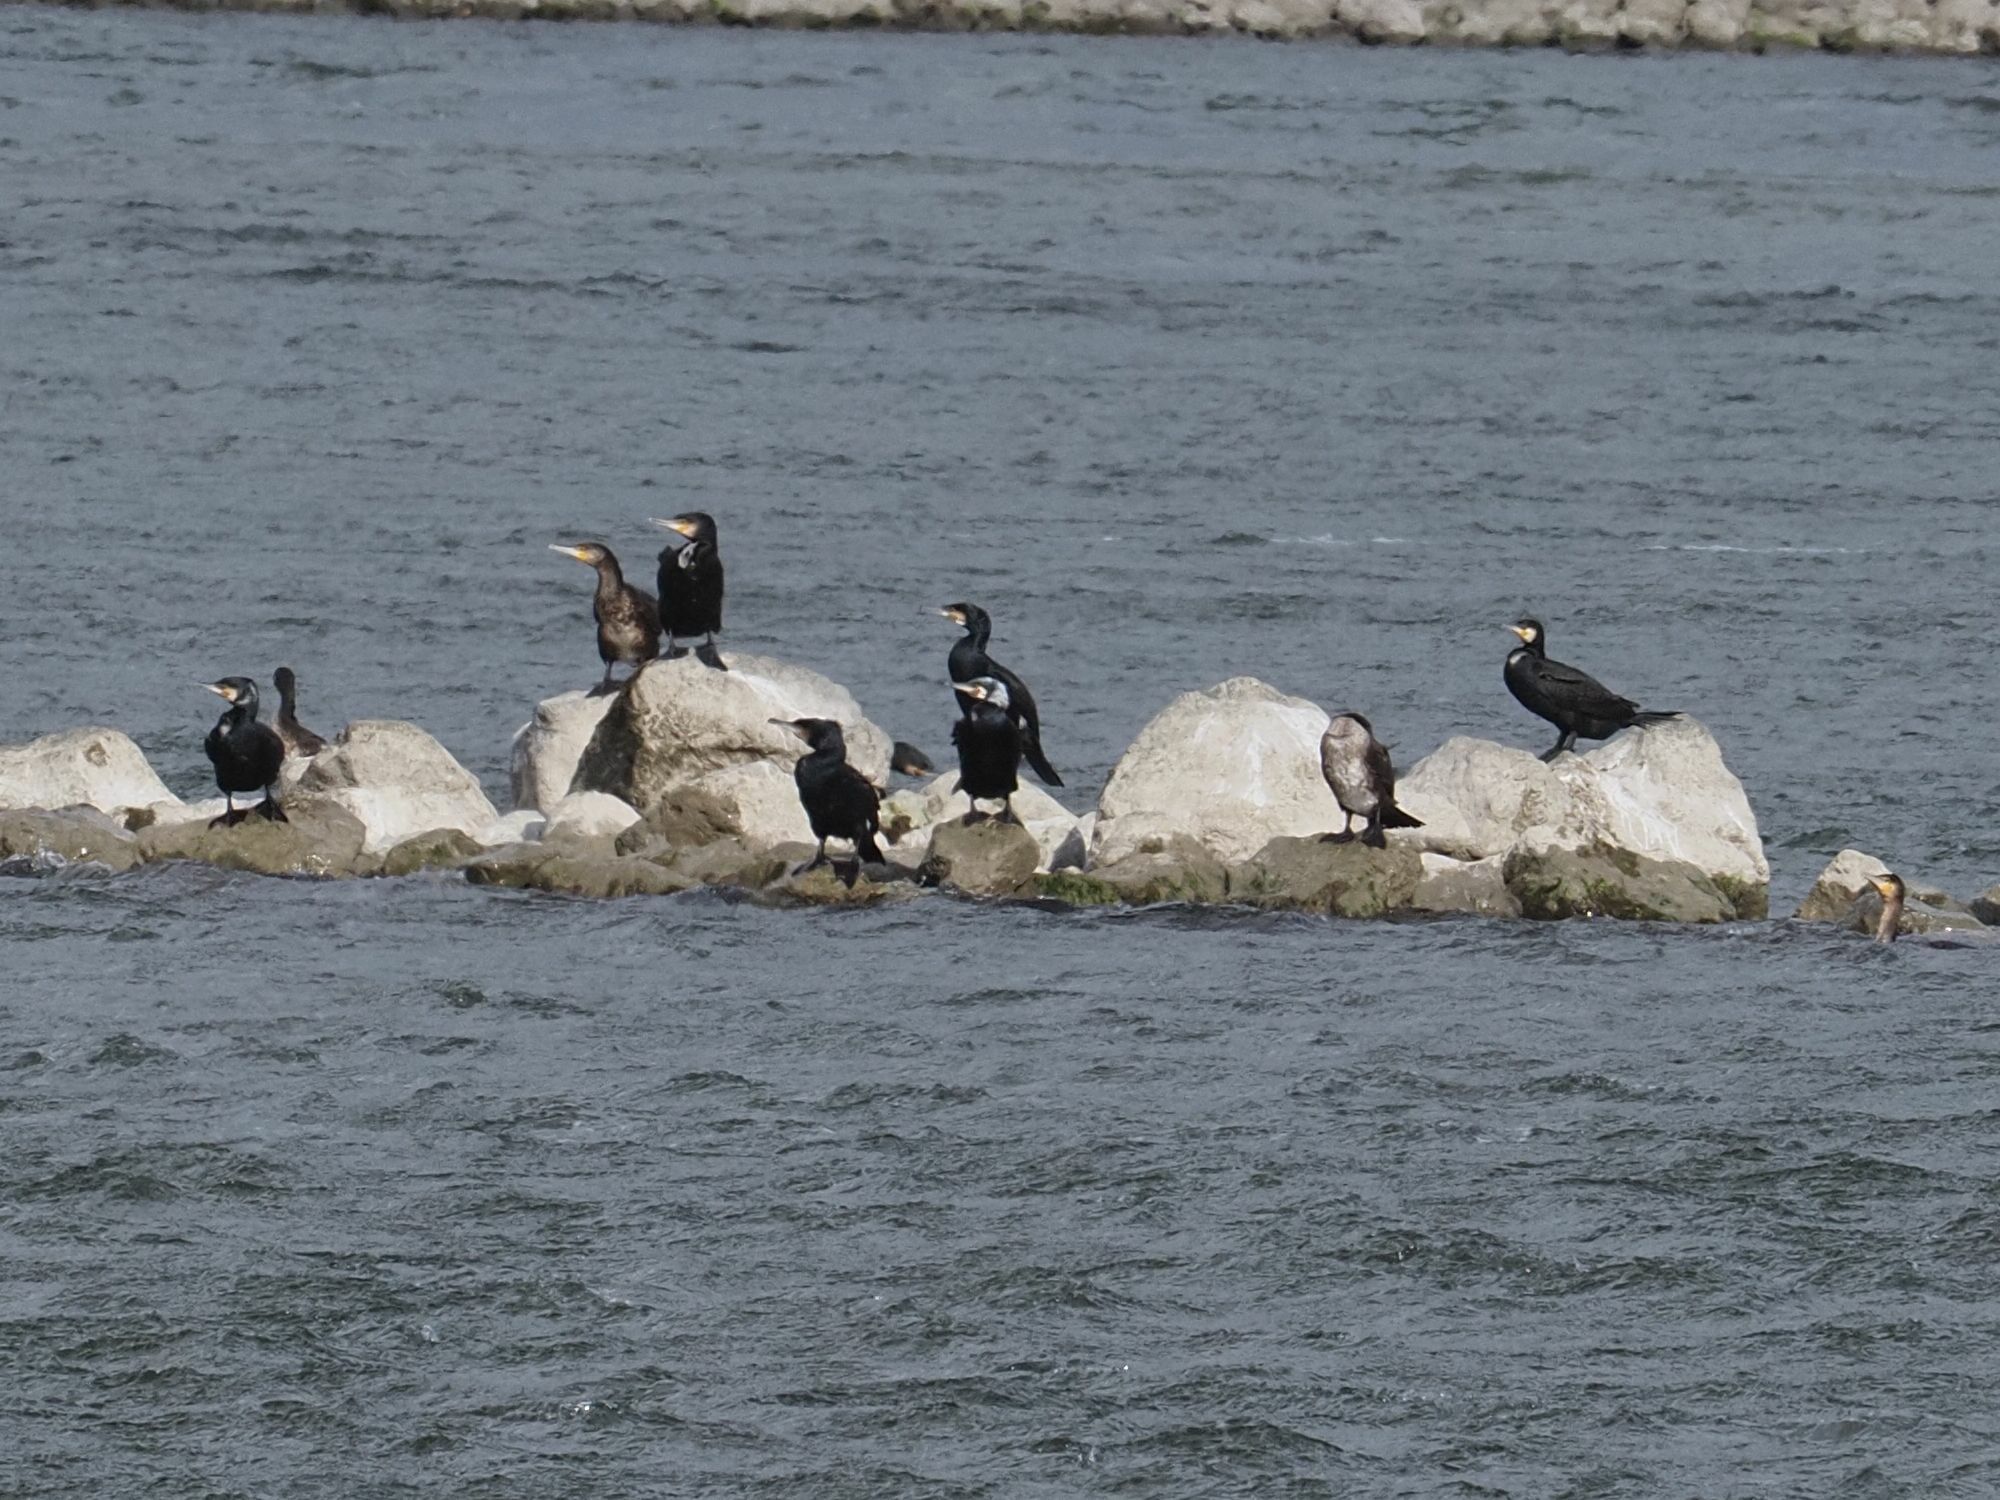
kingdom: Animalia
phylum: Chordata
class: Aves
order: Suliformes
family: Phalacrocoracidae
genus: Phalacrocorax
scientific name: Phalacrocorax carbo
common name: Great cormorant
